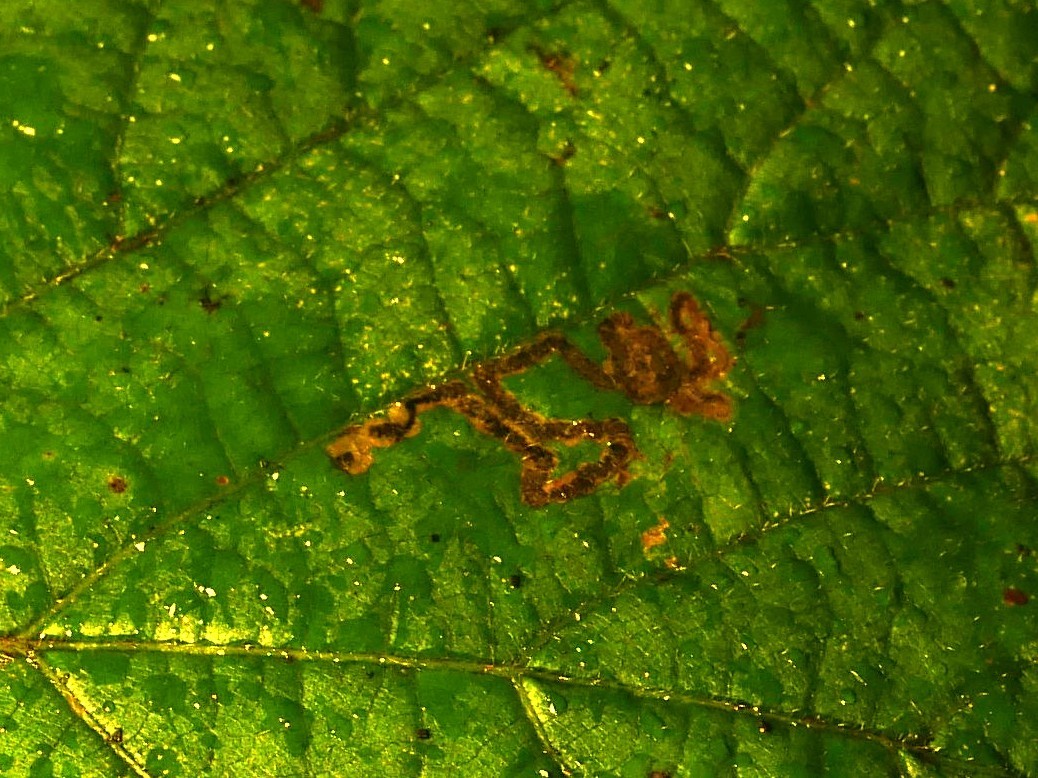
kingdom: Animalia
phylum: Arthropoda
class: Insecta
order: Lepidoptera
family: Nepticulidae
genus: Stigmella
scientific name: Stigmella tiliae
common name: Lime pigmy
